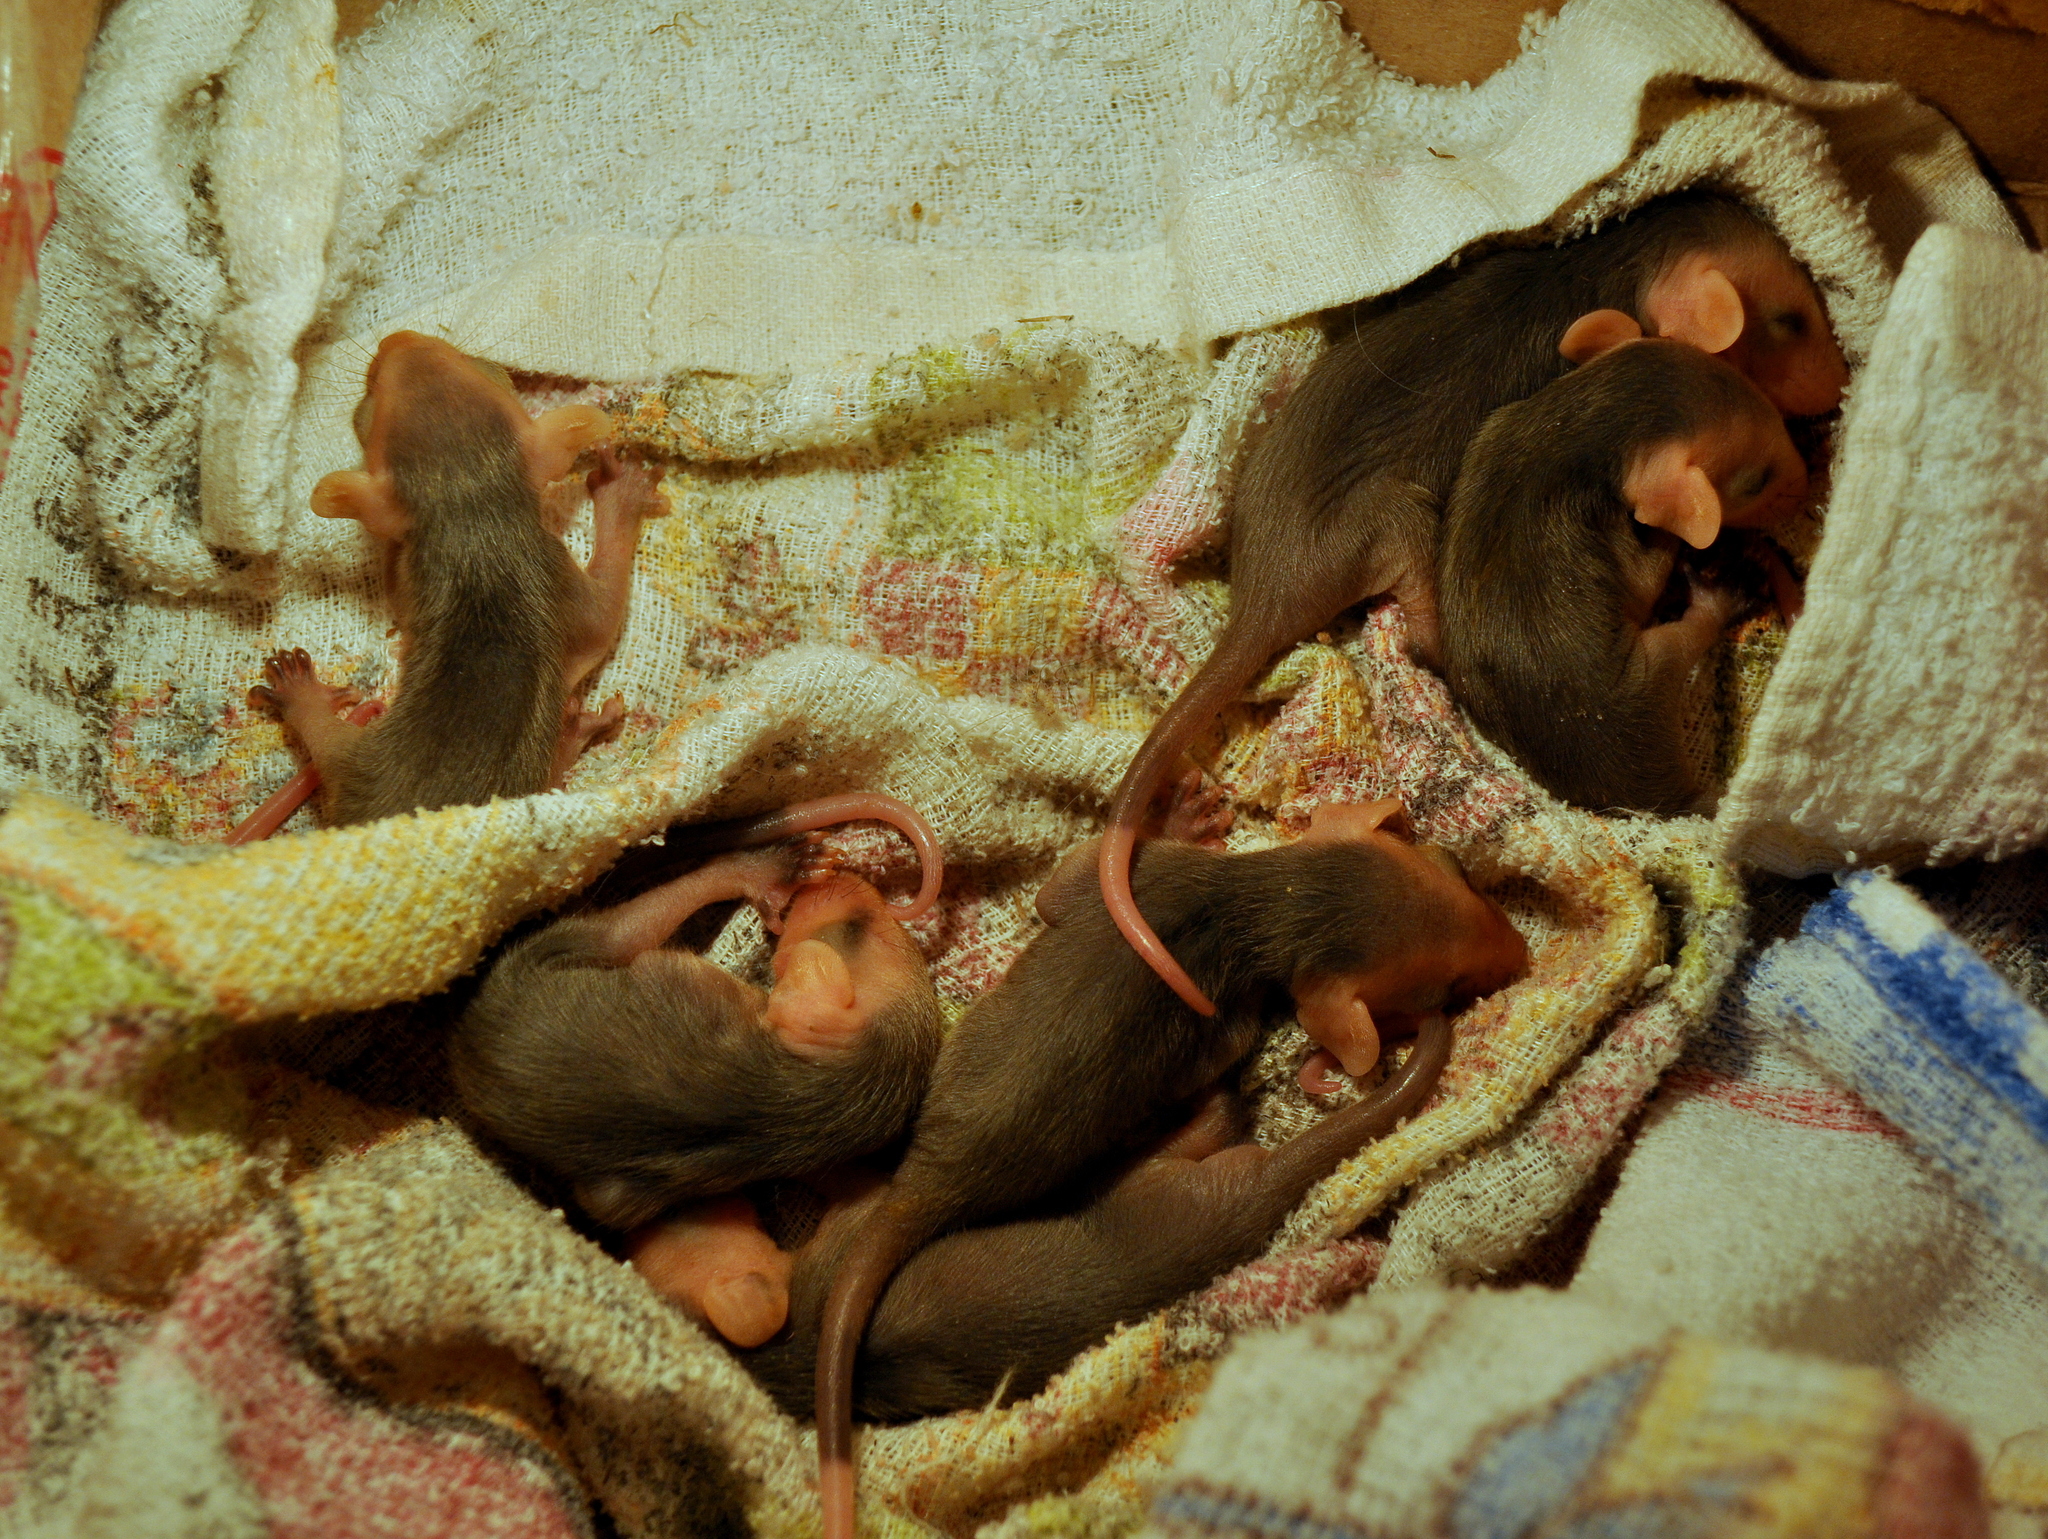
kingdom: Animalia
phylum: Chordata
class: Mammalia
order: Didelphimorphia
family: Didelphidae
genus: Didelphis
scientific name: Didelphis albiventris
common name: White-eared opossum
